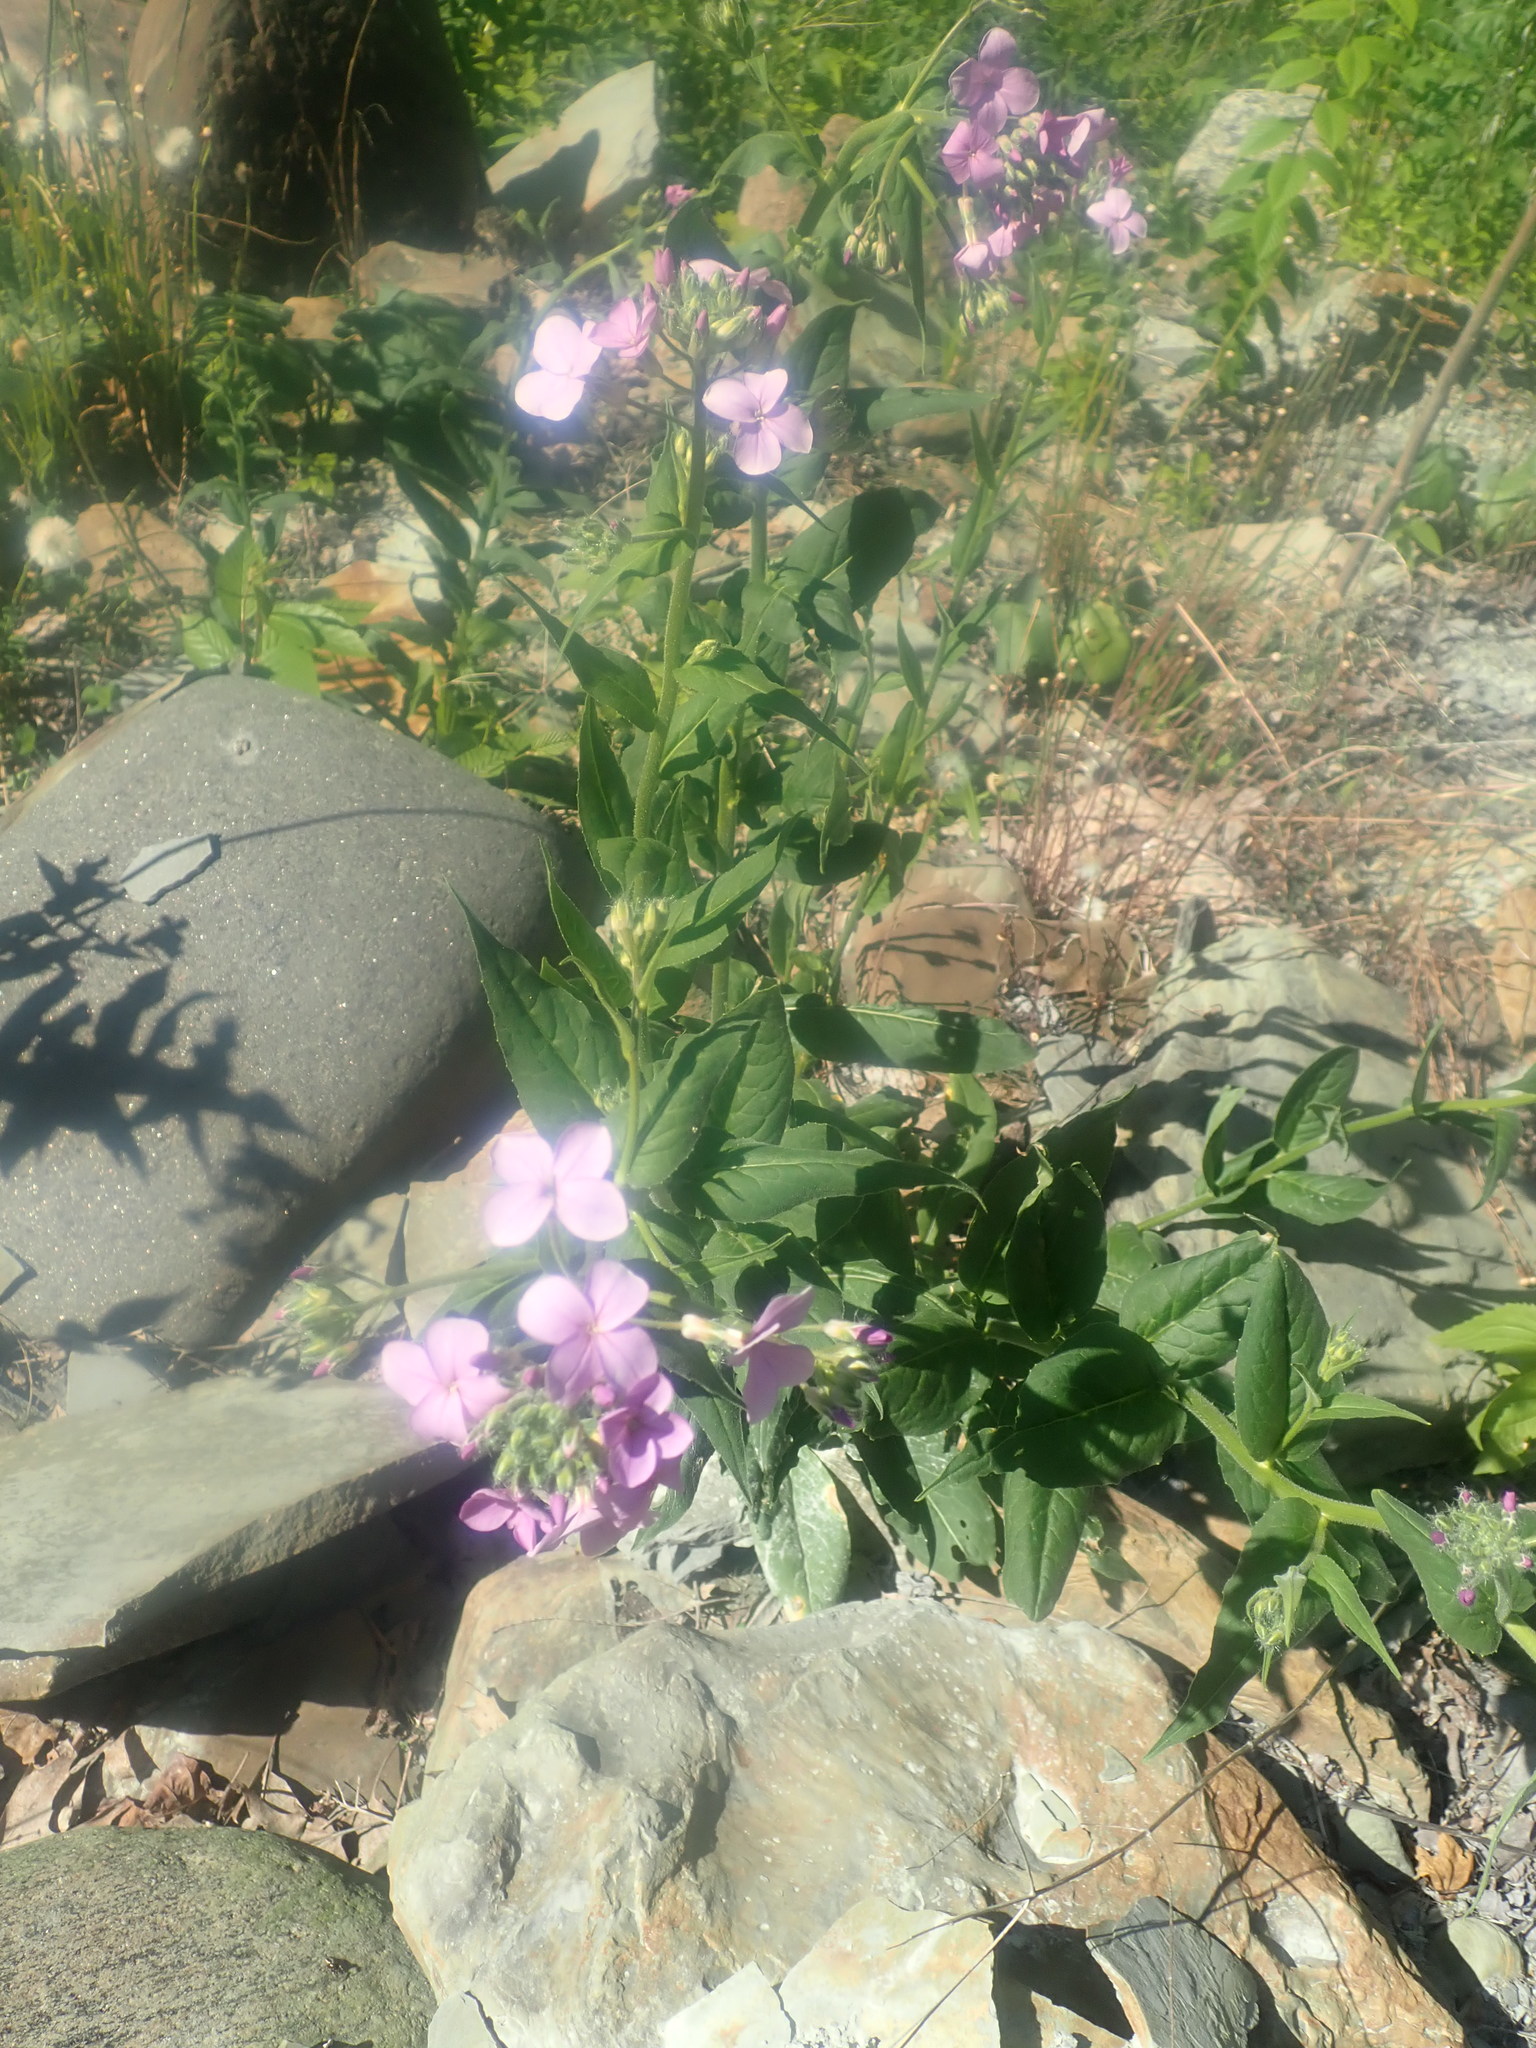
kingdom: Plantae
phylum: Tracheophyta
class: Magnoliopsida
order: Brassicales
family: Brassicaceae
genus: Hesperis
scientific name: Hesperis matronalis
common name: Dame's-violet
